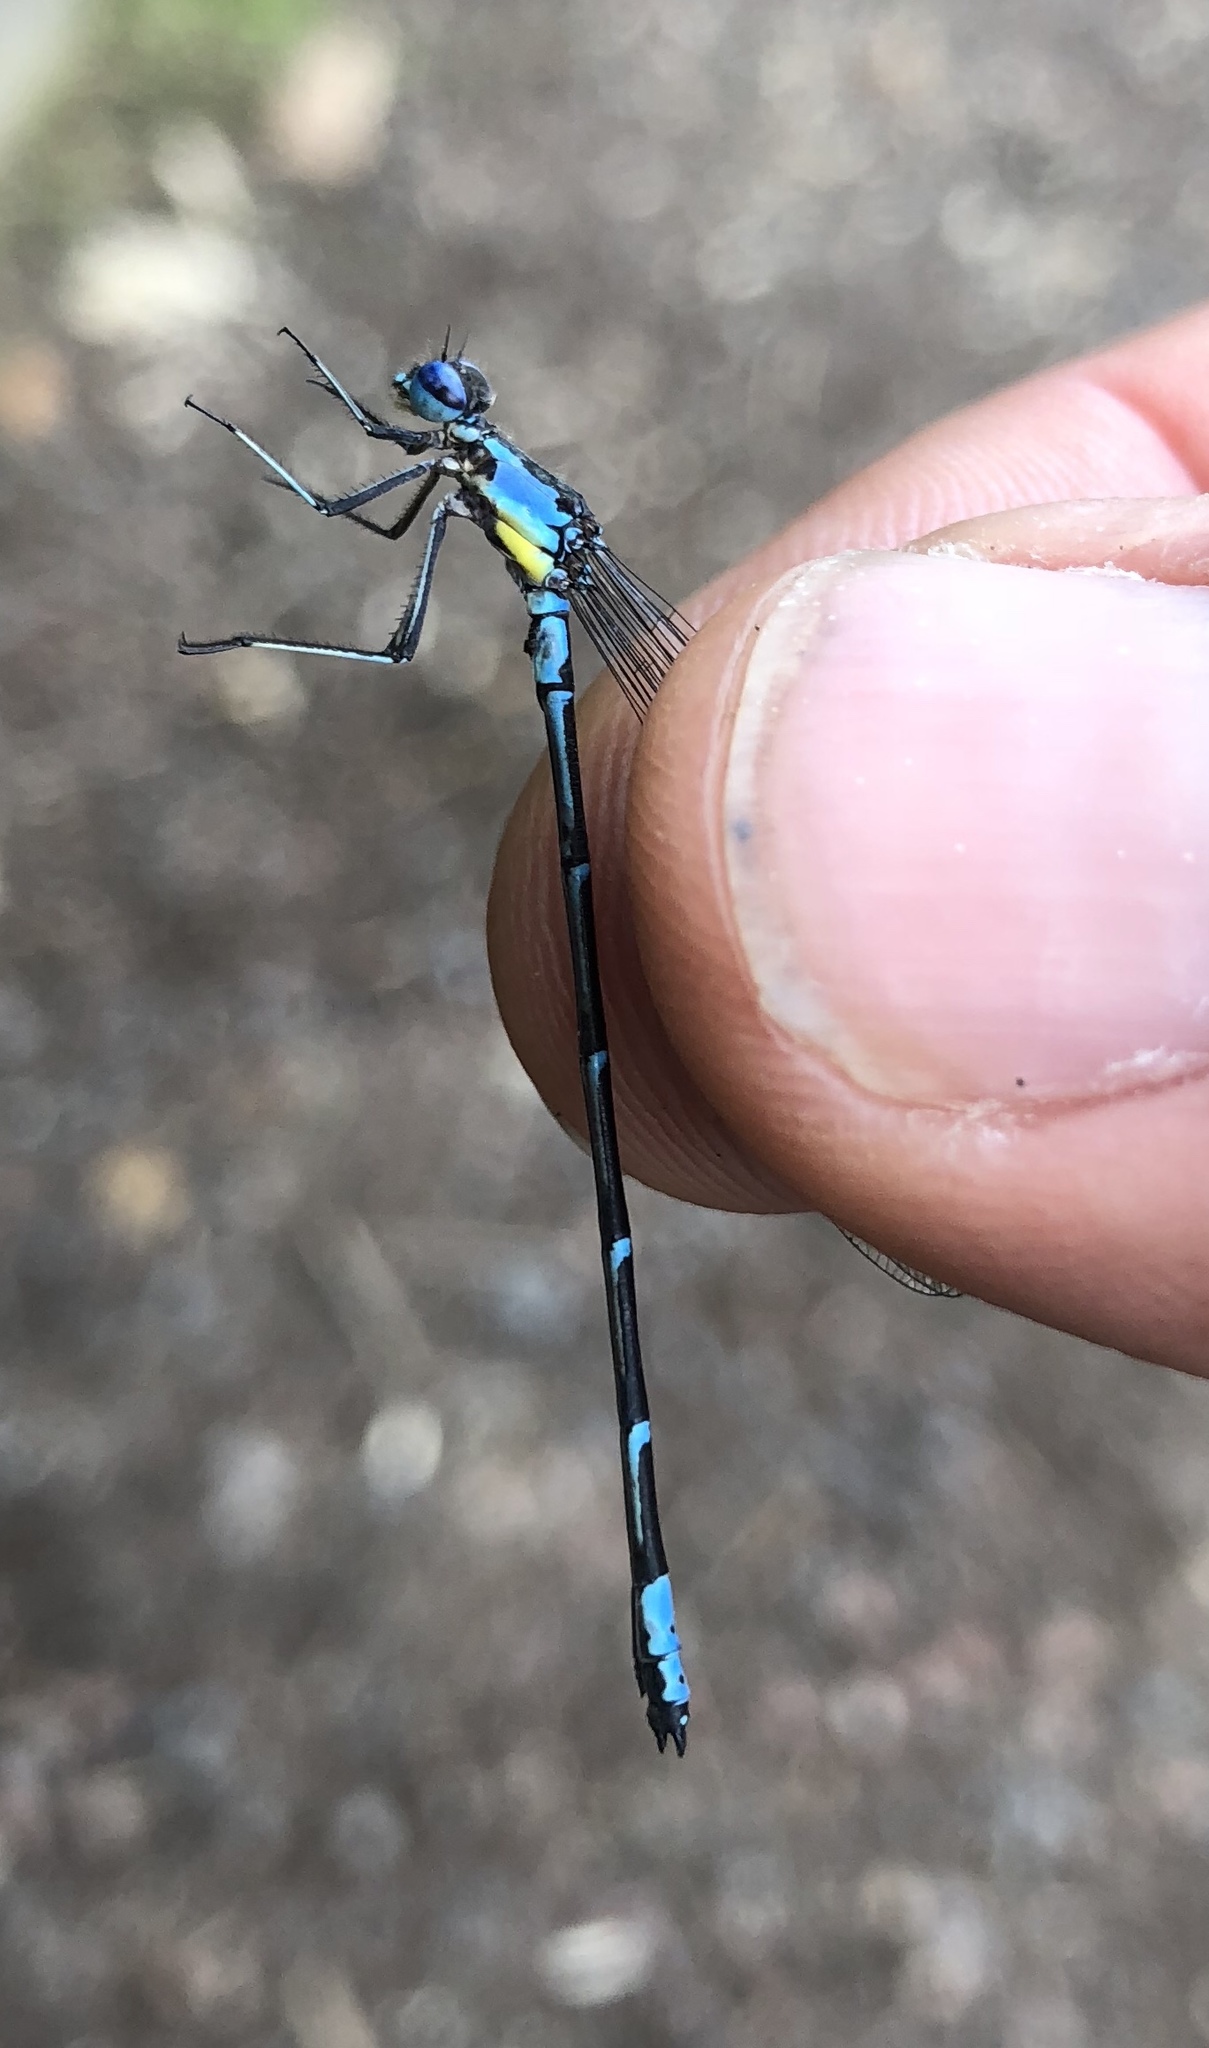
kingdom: Animalia
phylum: Arthropoda
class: Insecta
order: Odonata
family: Coenagrionidae
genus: Chromagrion
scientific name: Chromagrion conditum
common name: Aurora damsel
